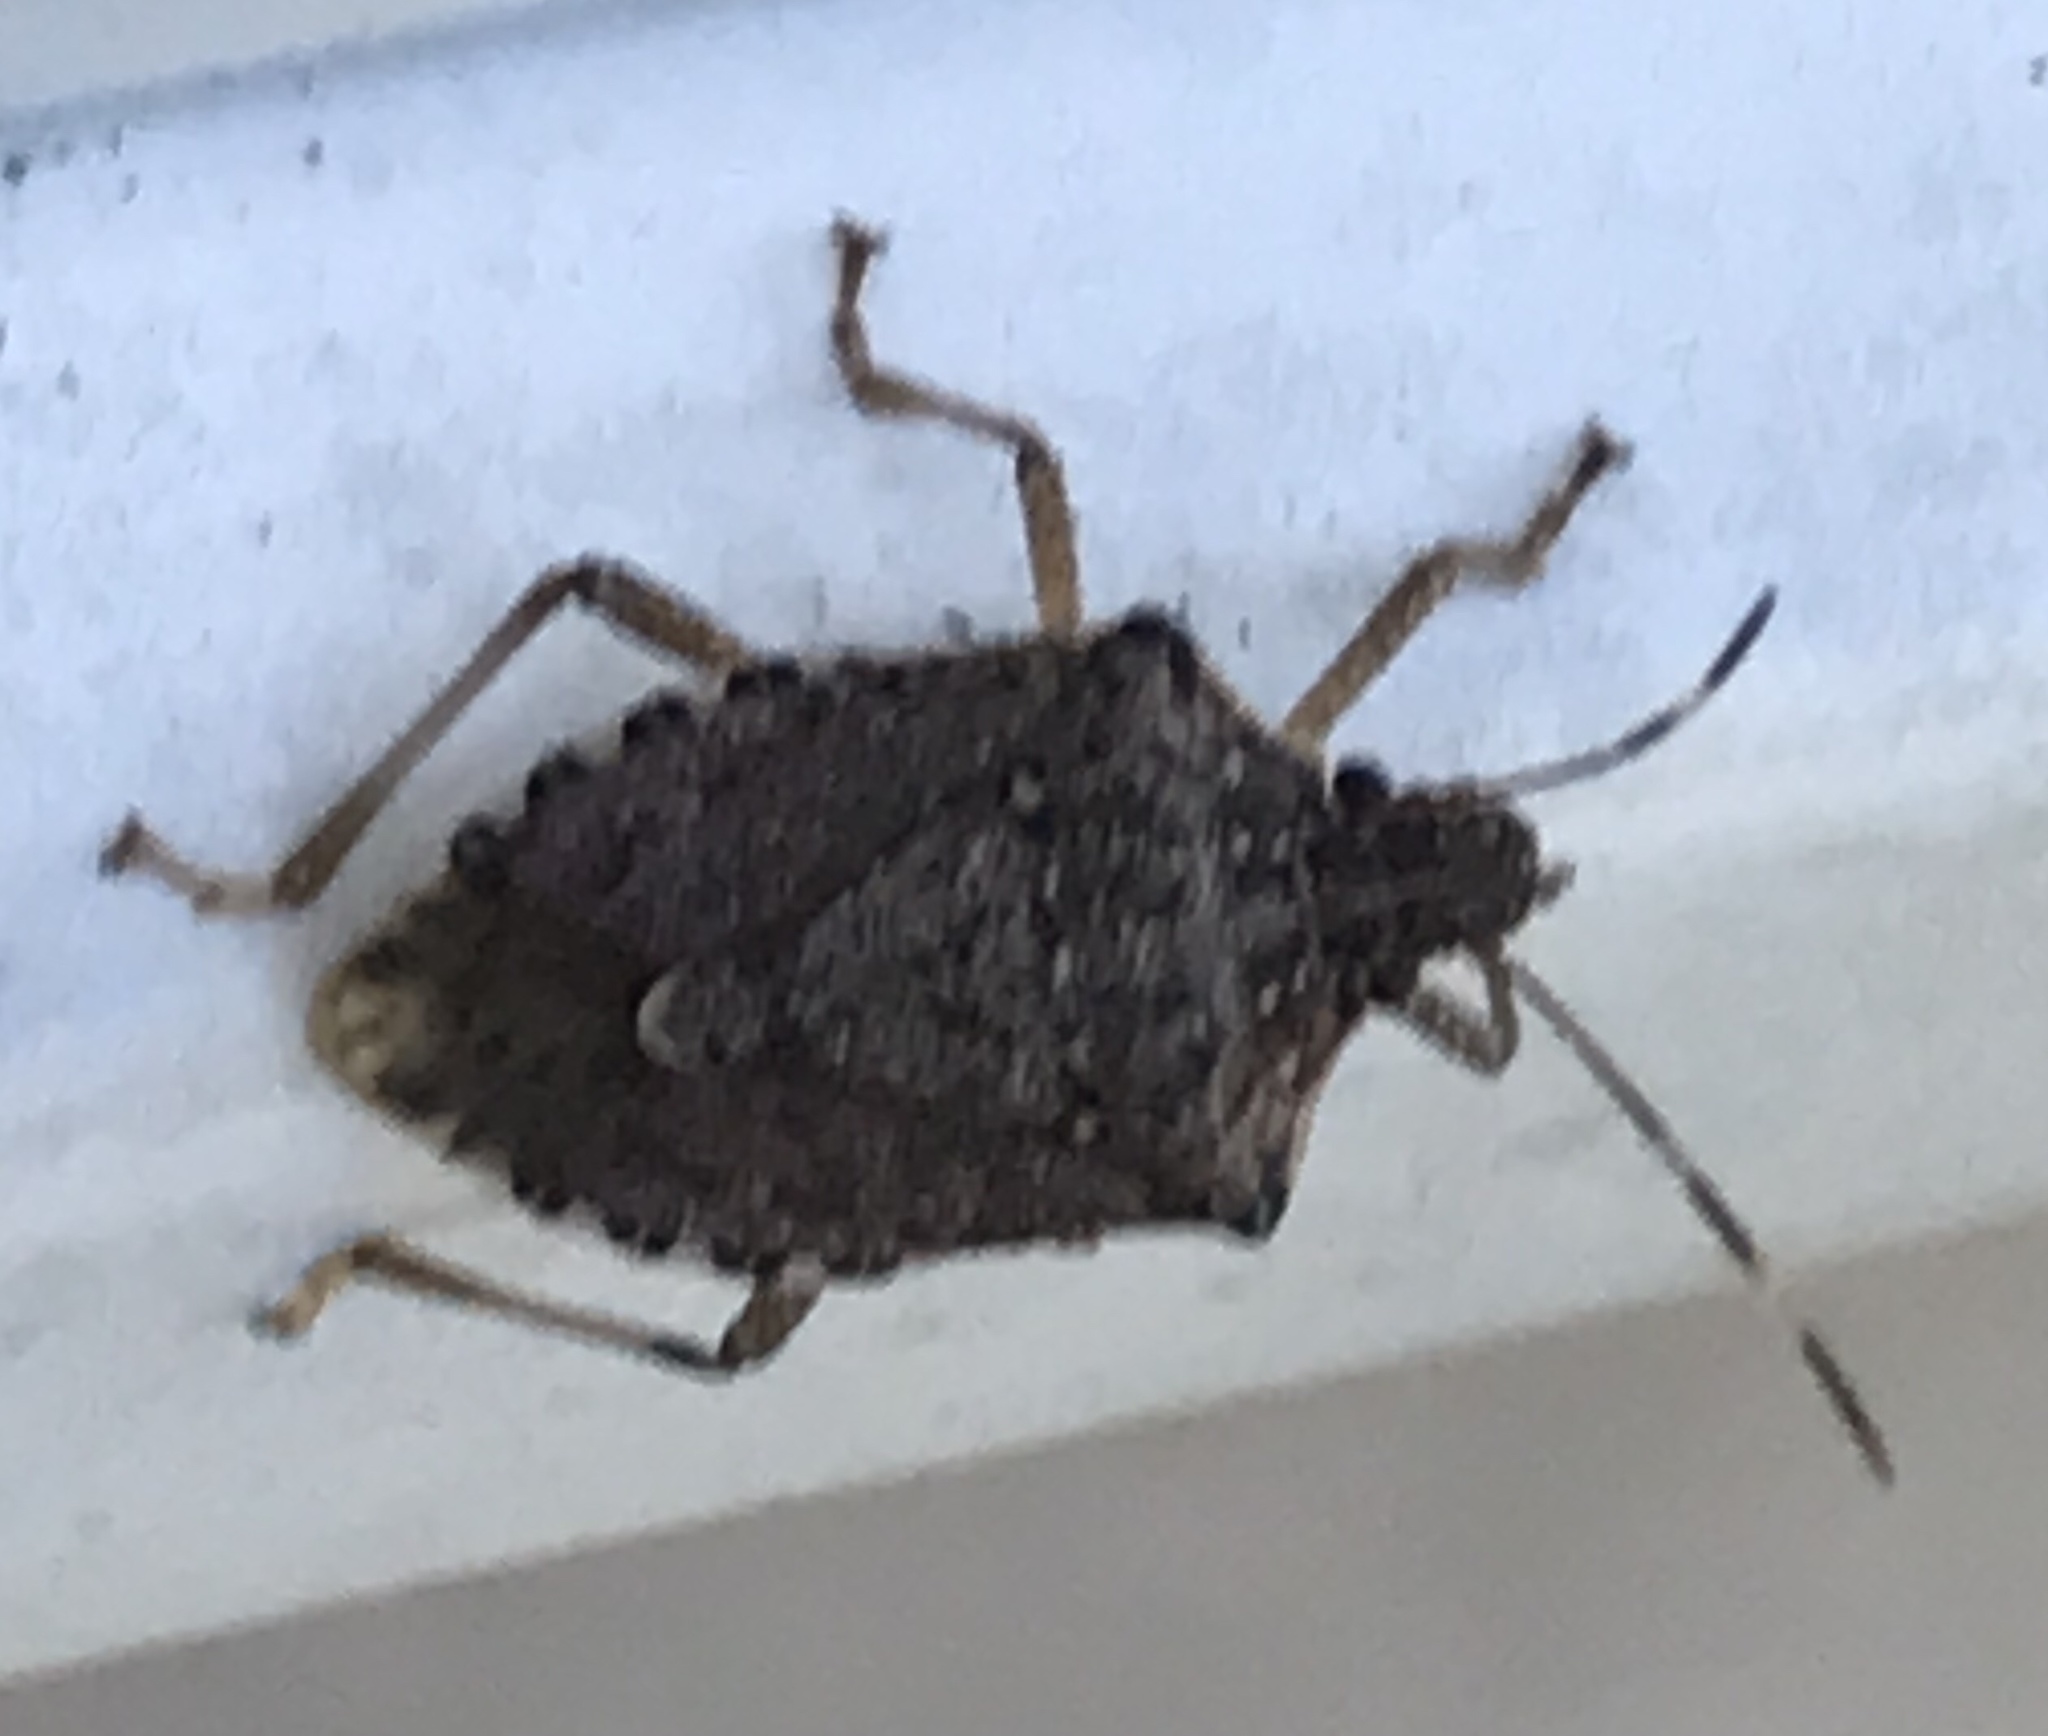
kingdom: Animalia
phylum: Arthropoda
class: Insecta
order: Hemiptera
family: Pentatomidae
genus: Halyomorpha
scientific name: Halyomorpha halys
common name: Brown marmorated stink bug
